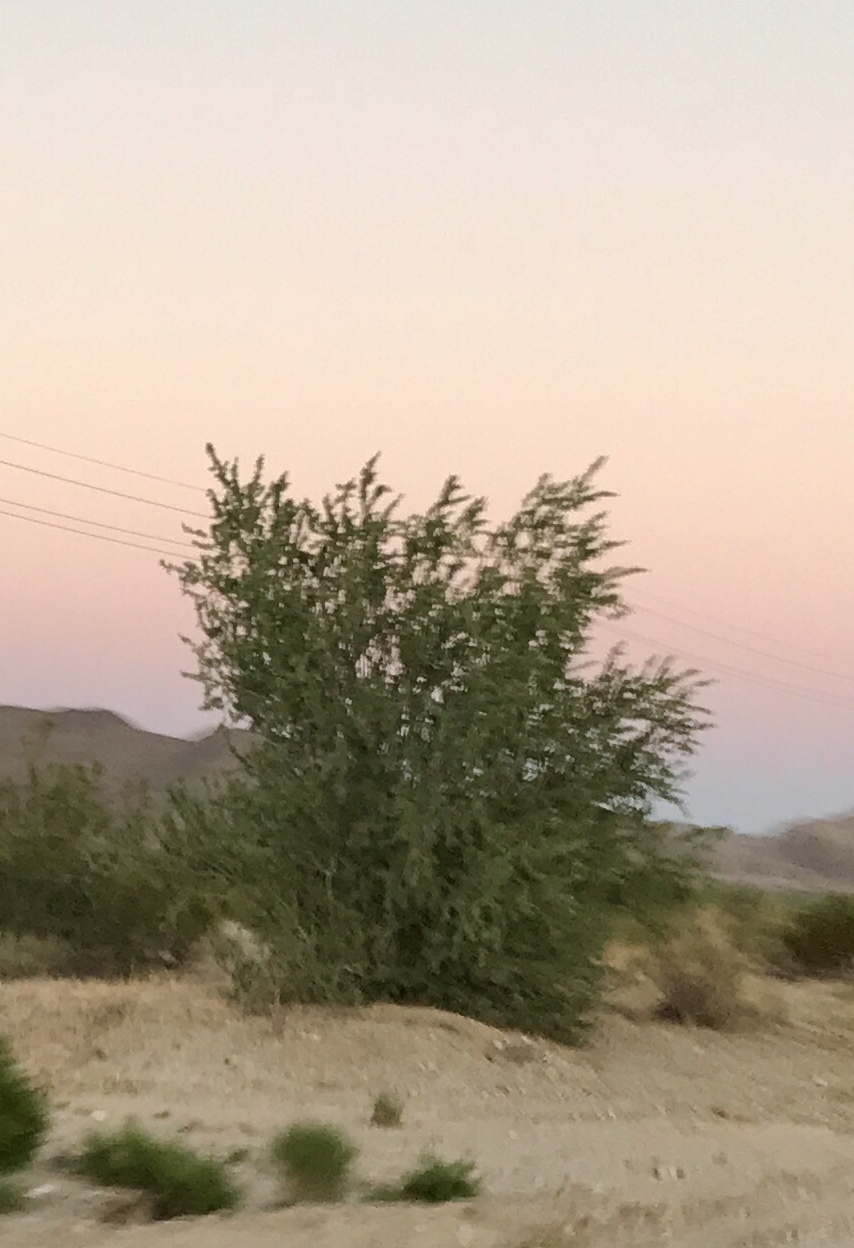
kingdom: Plantae
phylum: Tracheophyta
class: Magnoliopsida
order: Fabales
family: Fabaceae
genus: Olneya
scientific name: Olneya tesota
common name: Desert ironwood
